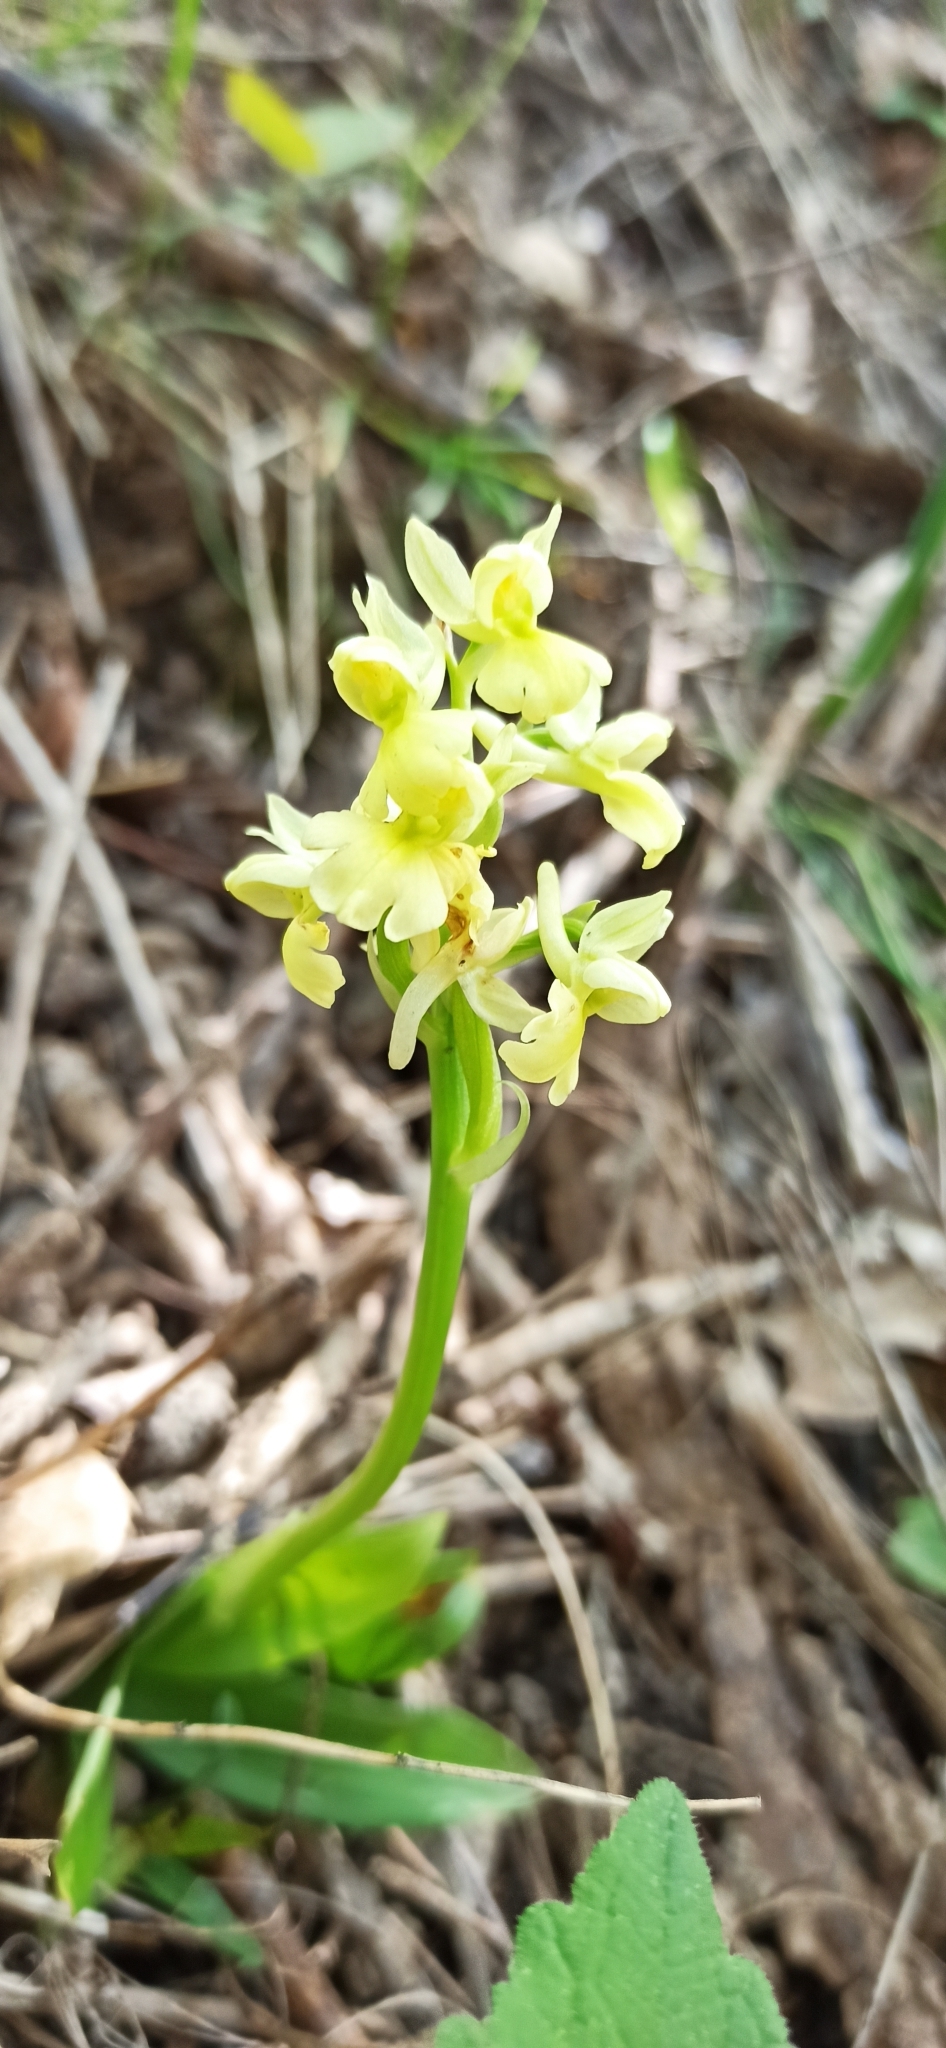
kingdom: Plantae
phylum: Tracheophyta
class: Liliopsida
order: Asparagales
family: Orchidaceae
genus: Orchis
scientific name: Orchis pallens
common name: Pale-flowered orchid
